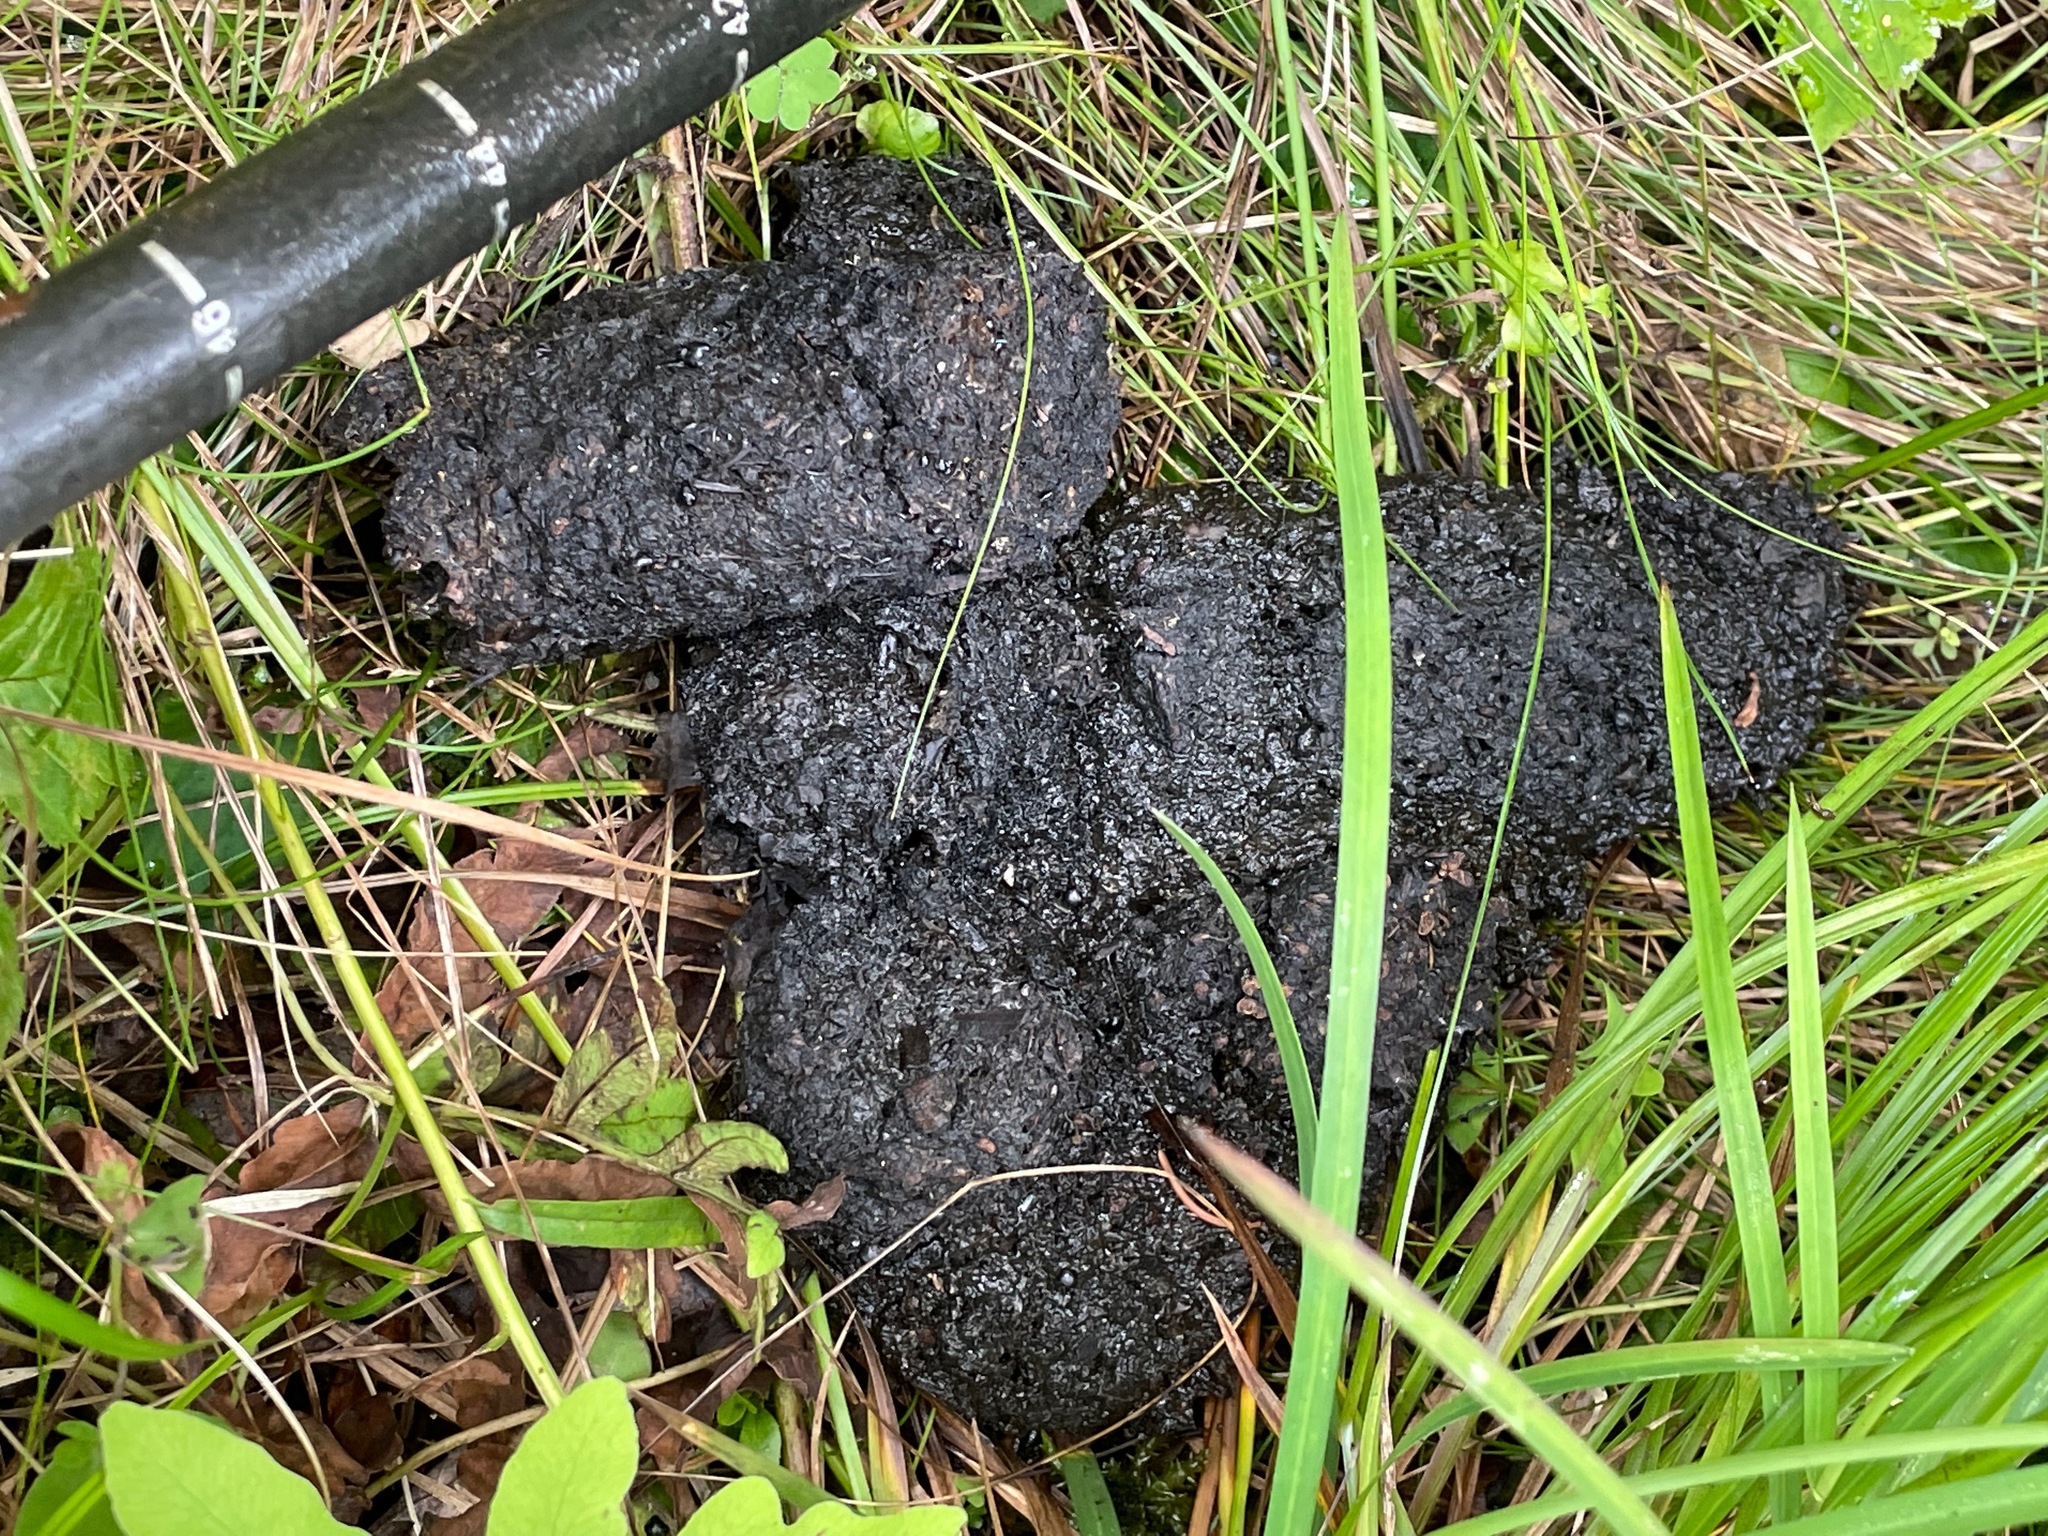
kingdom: Animalia
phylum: Chordata
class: Mammalia
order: Carnivora
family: Ursidae
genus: Ursus
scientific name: Ursus americanus
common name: American black bear
